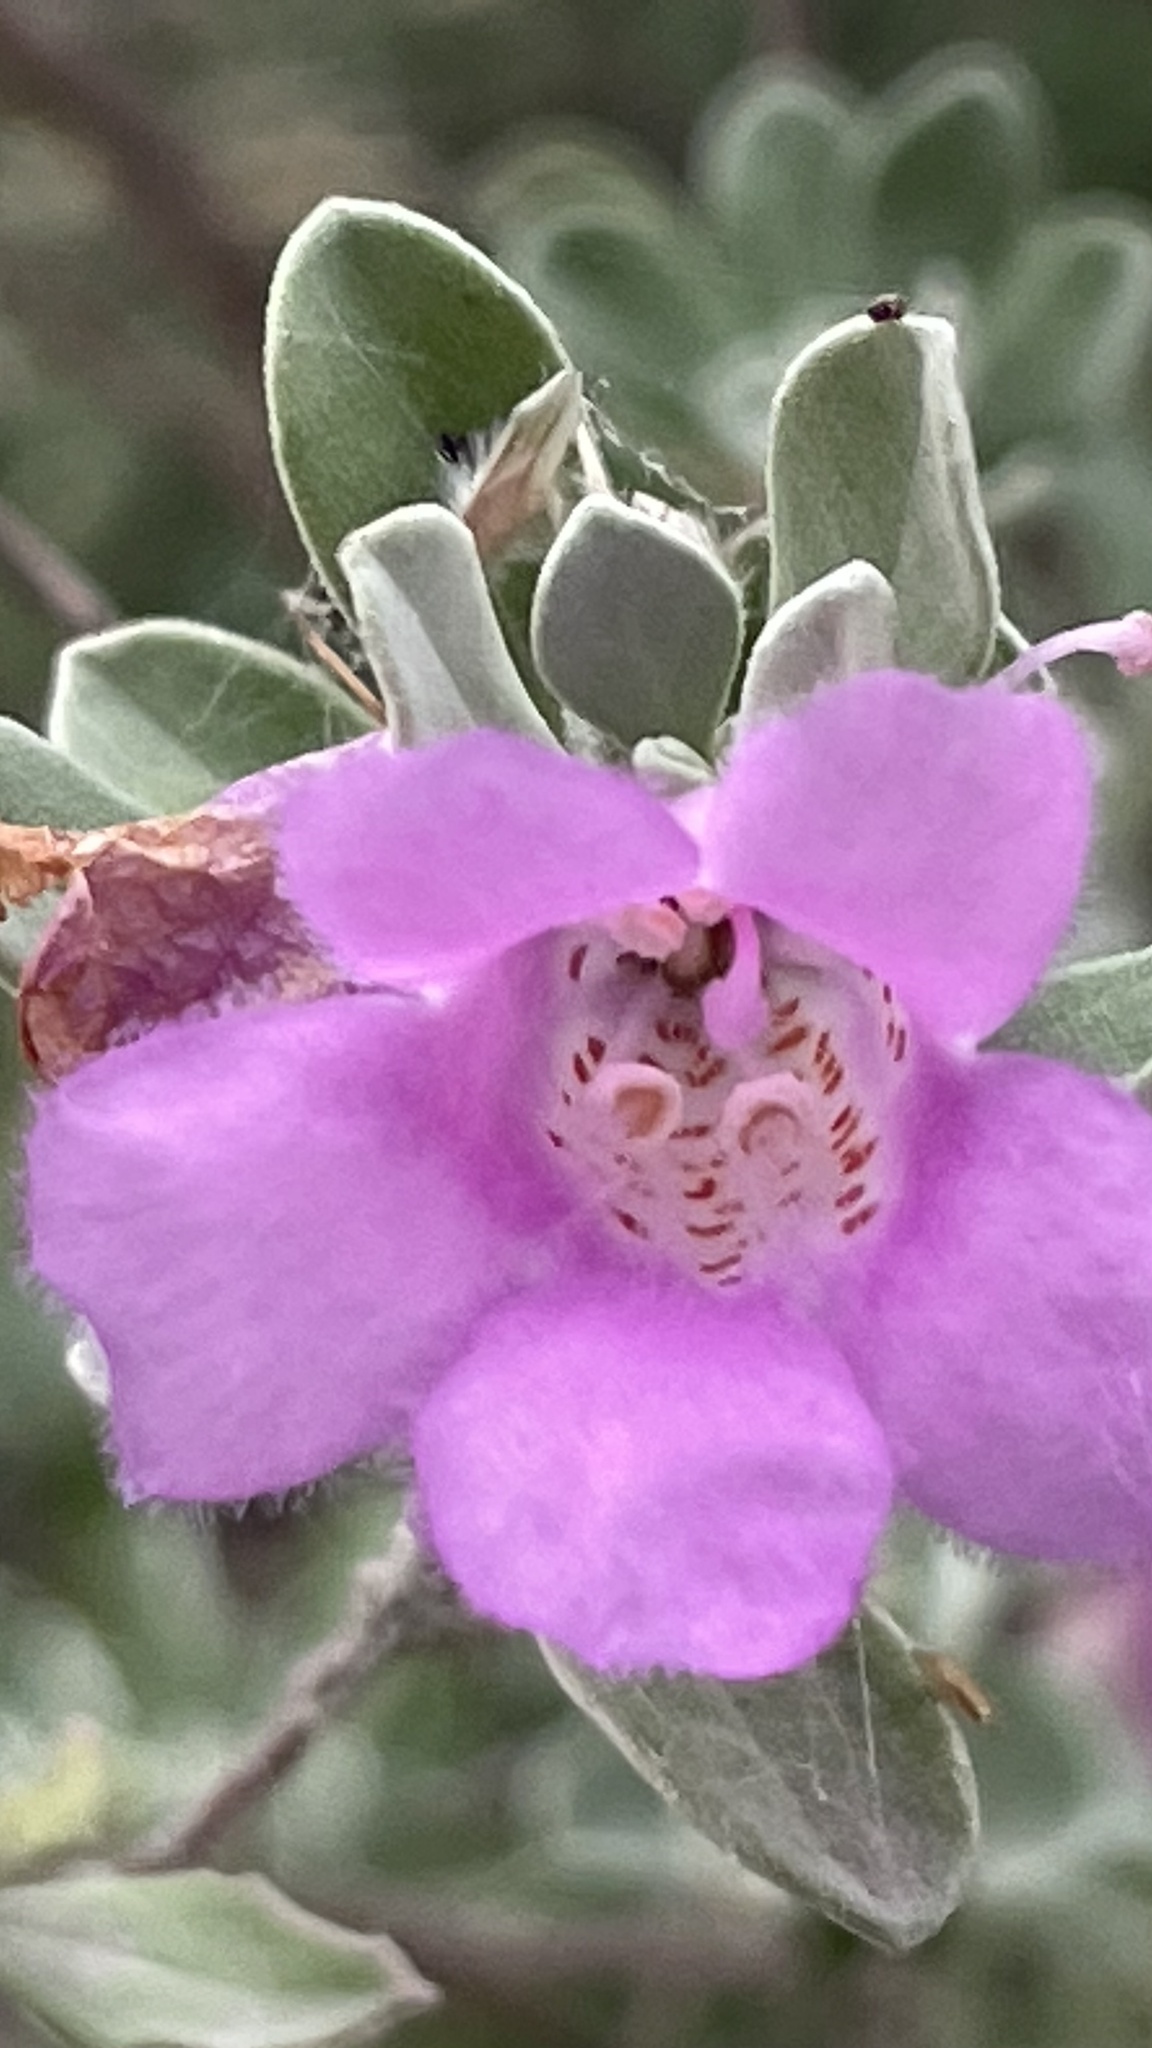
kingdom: Plantae
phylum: Tracheophyta
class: Magnoliopsida
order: Lamiales
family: Scrophulariaceae
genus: Leucophyllum
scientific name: Leucophyllum frutescens
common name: Texas silverleaf
